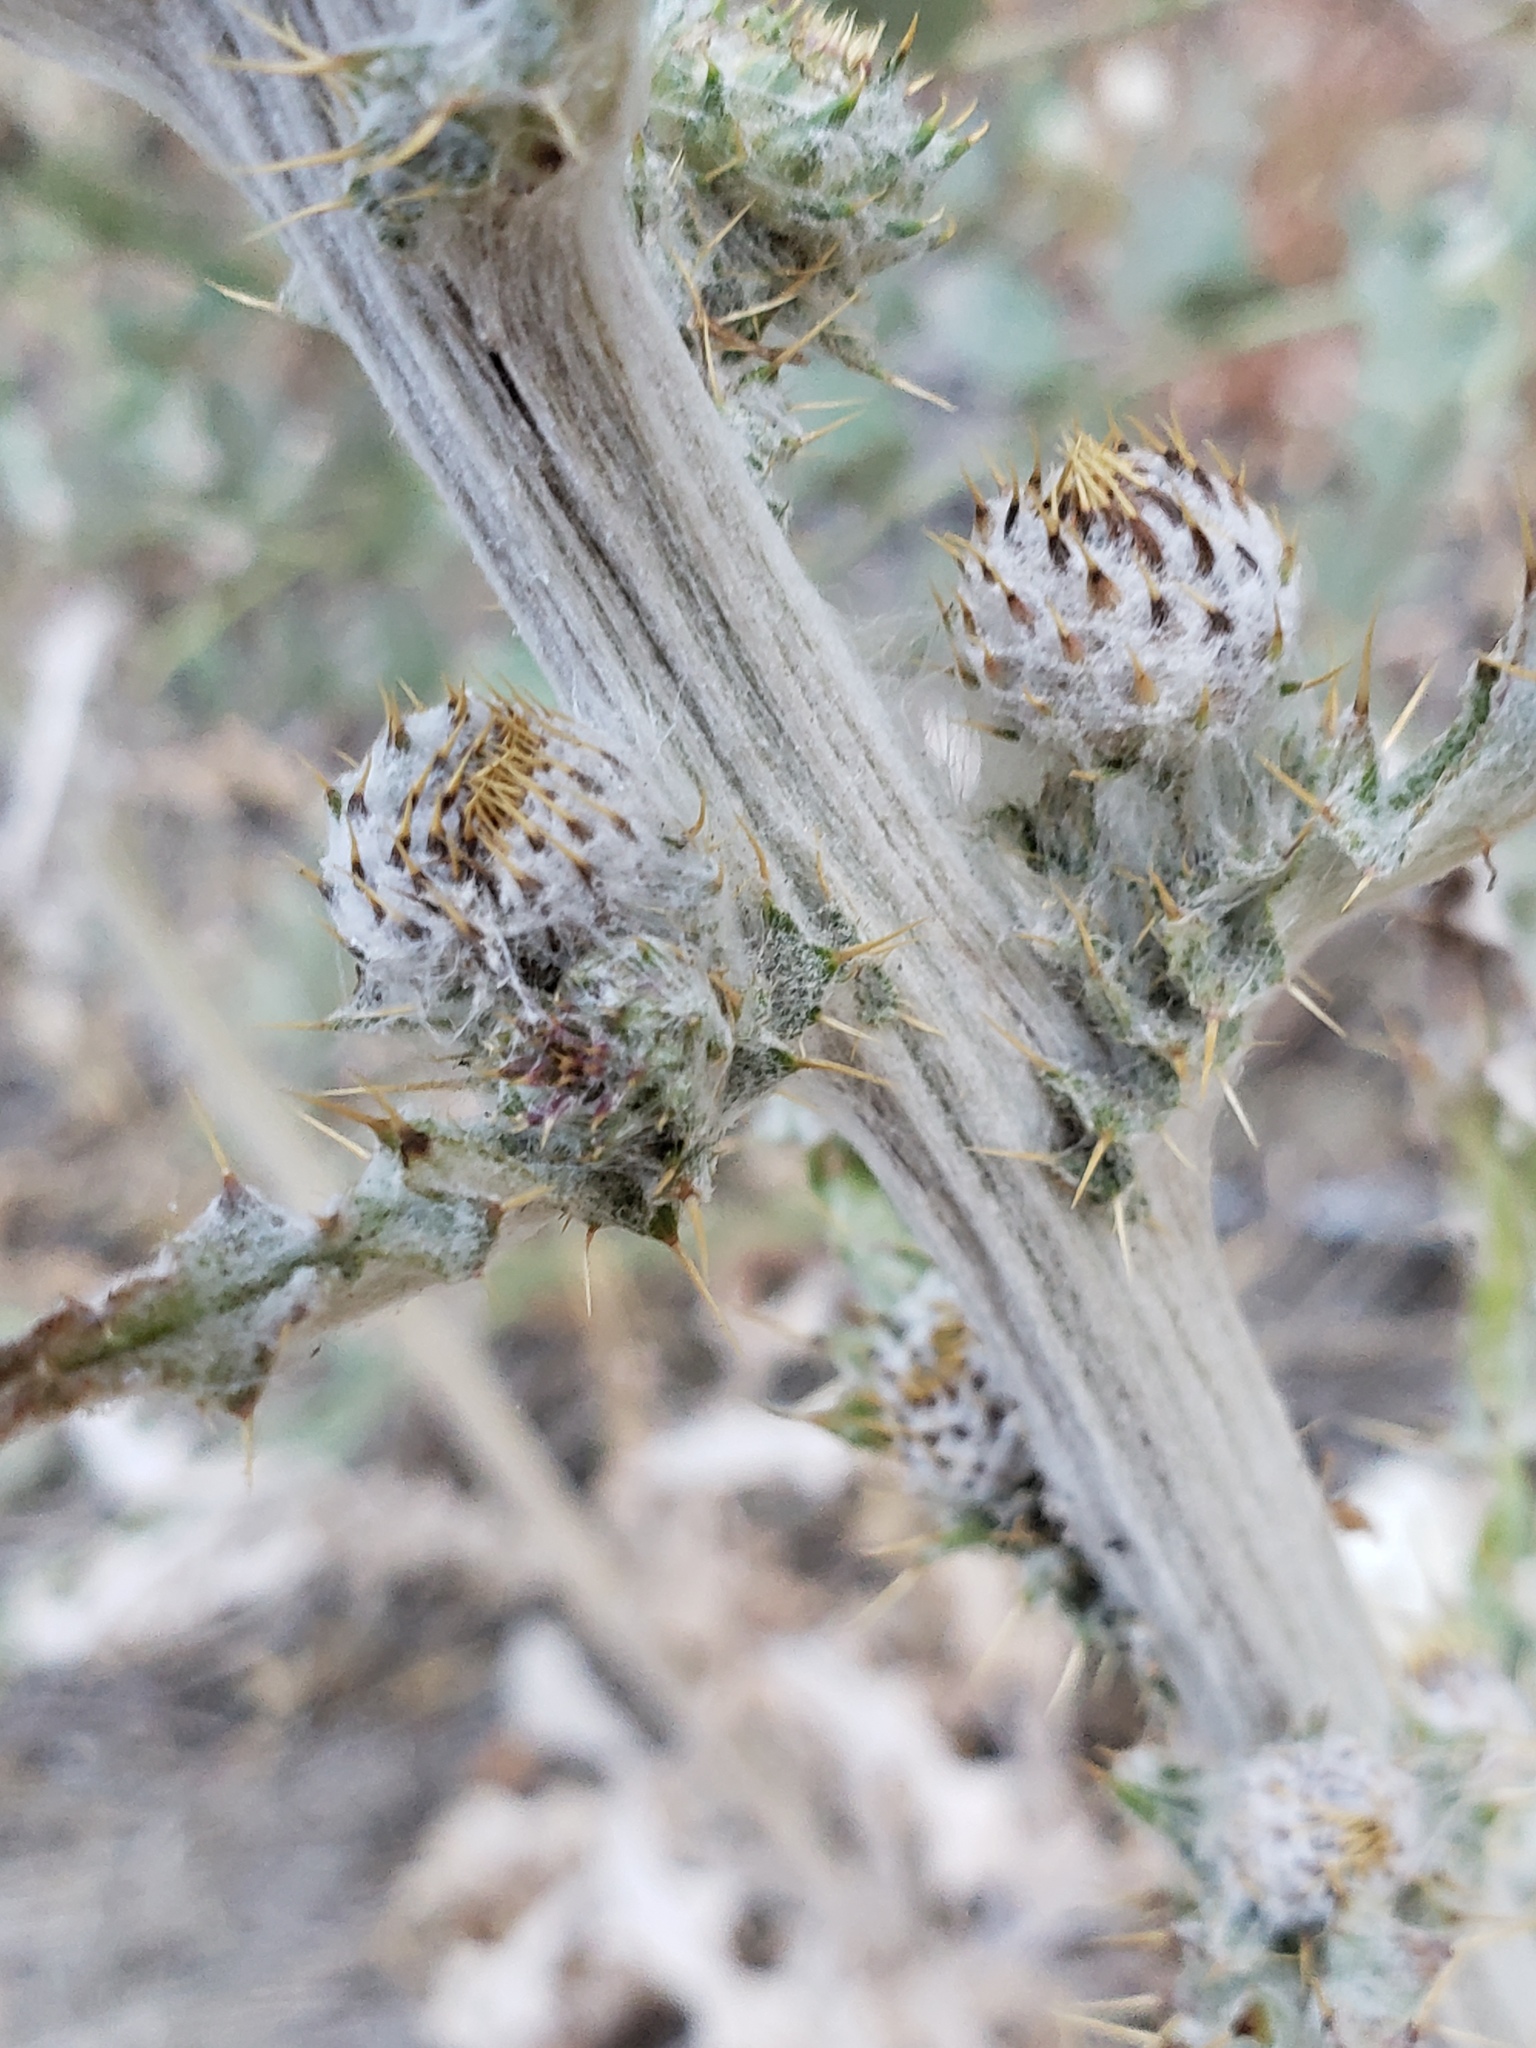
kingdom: Plantae
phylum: Tracheophyta
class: Magnoliopsida
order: Asterales
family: Asteraceae
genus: Cirsium
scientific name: Cirsium occidentale
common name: Western thistle
